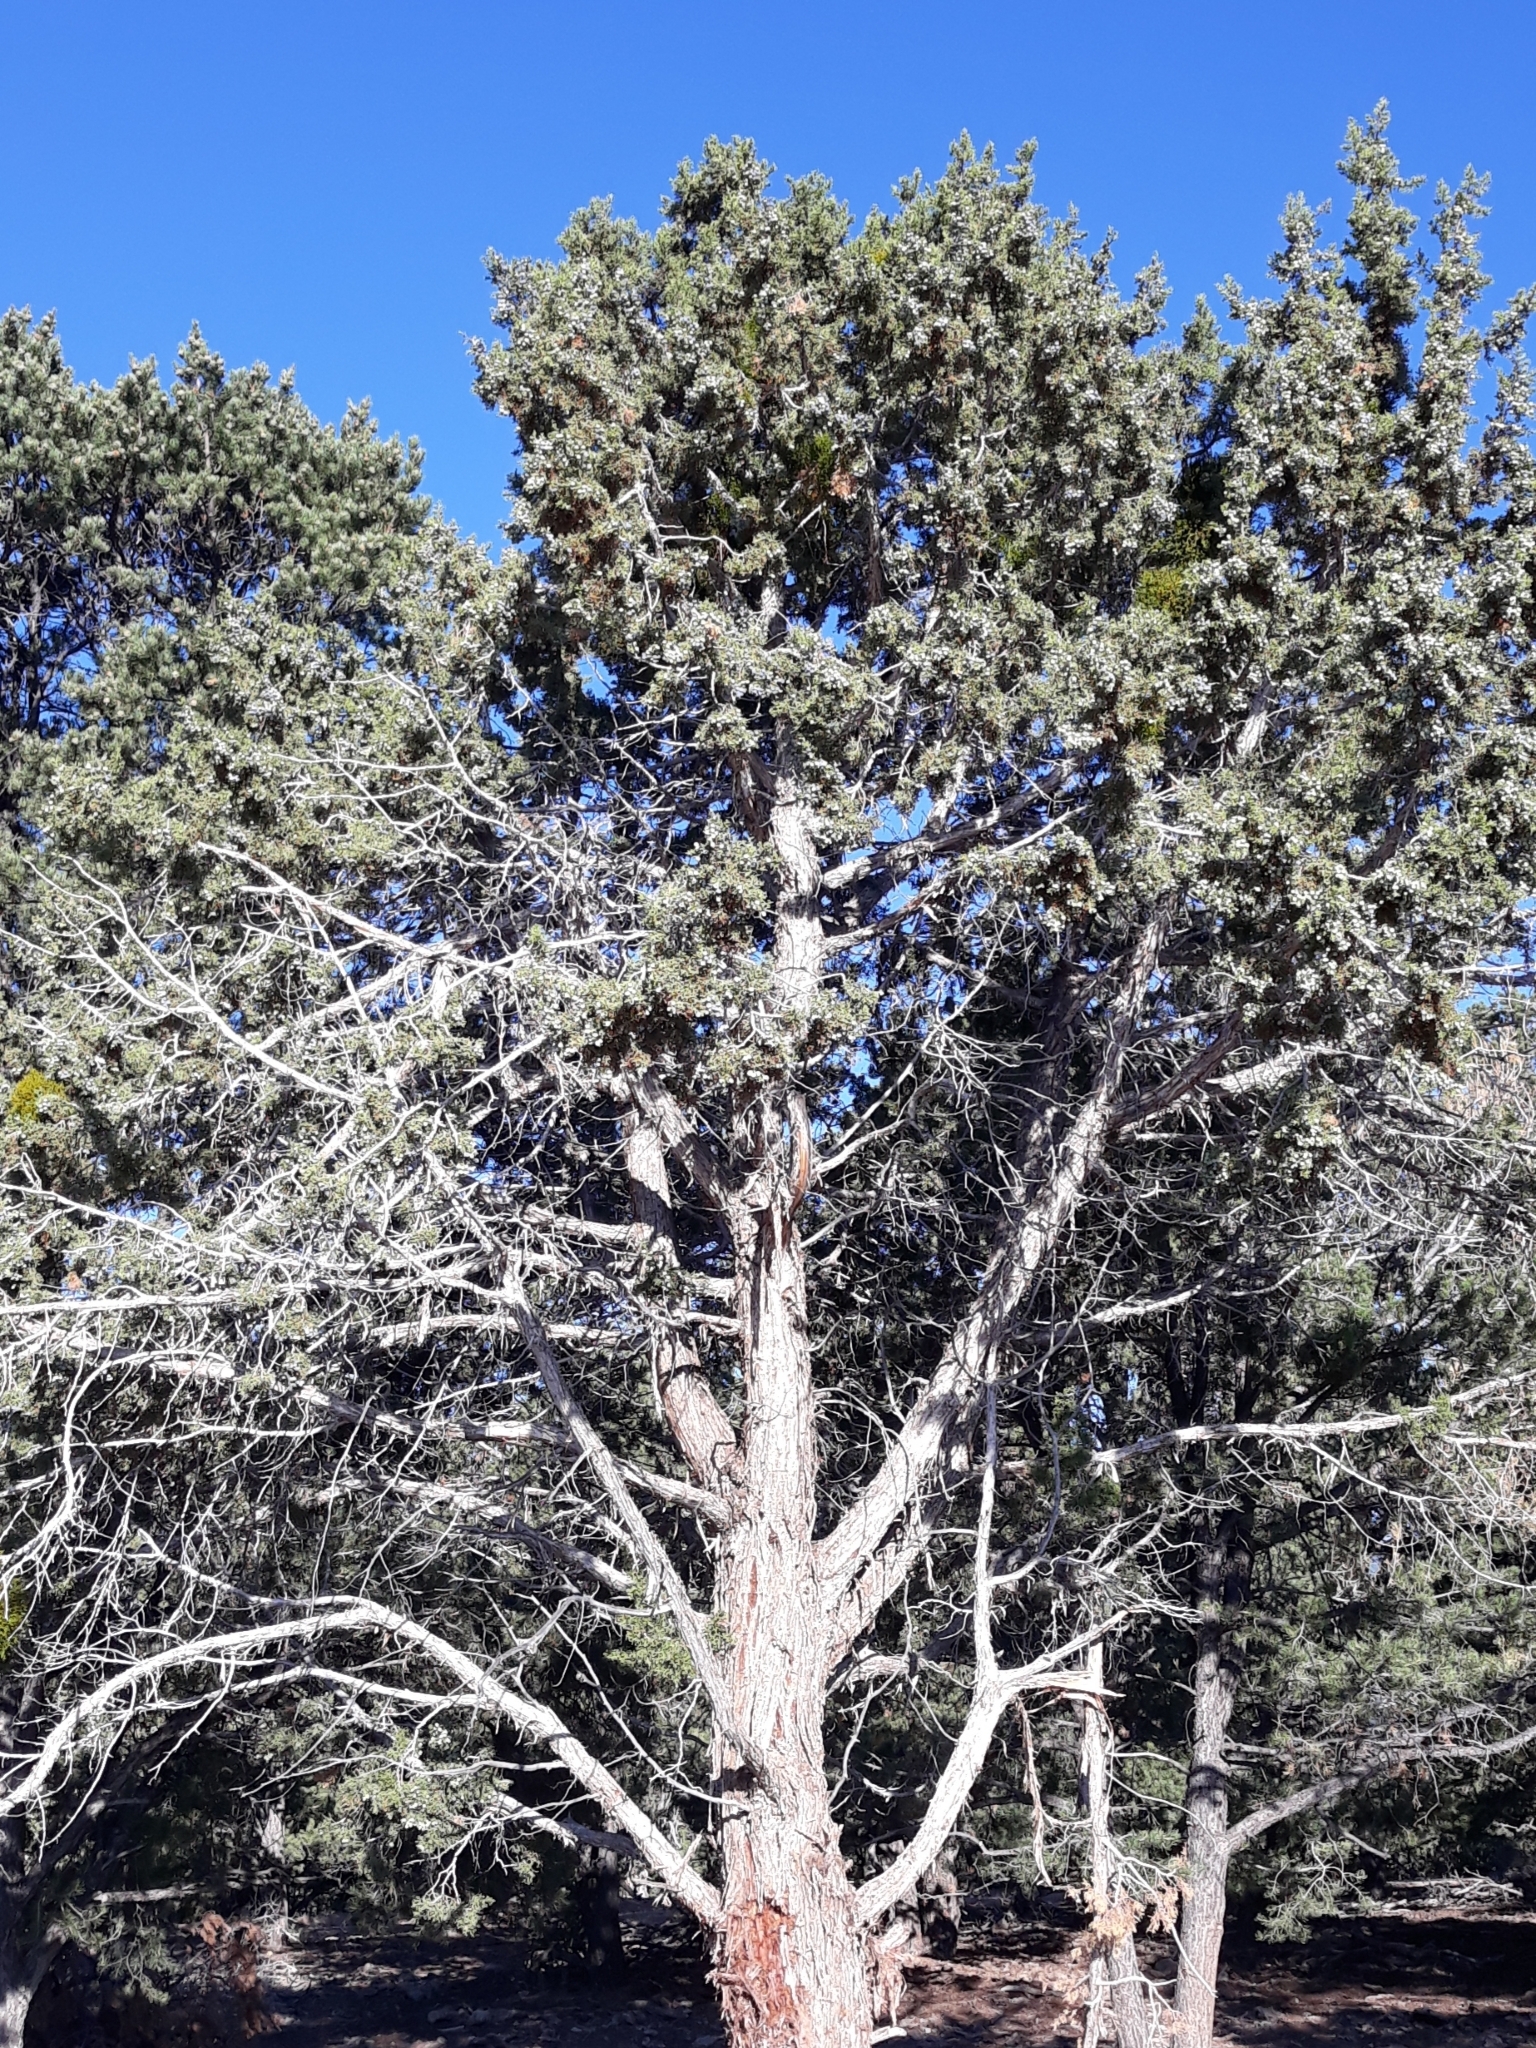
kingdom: Plantae
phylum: Tracheophyta
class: Pinopsida
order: Pinales
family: Cupressaceae
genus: Juniperus
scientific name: Juniperus osteosperma
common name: Utah juniper
